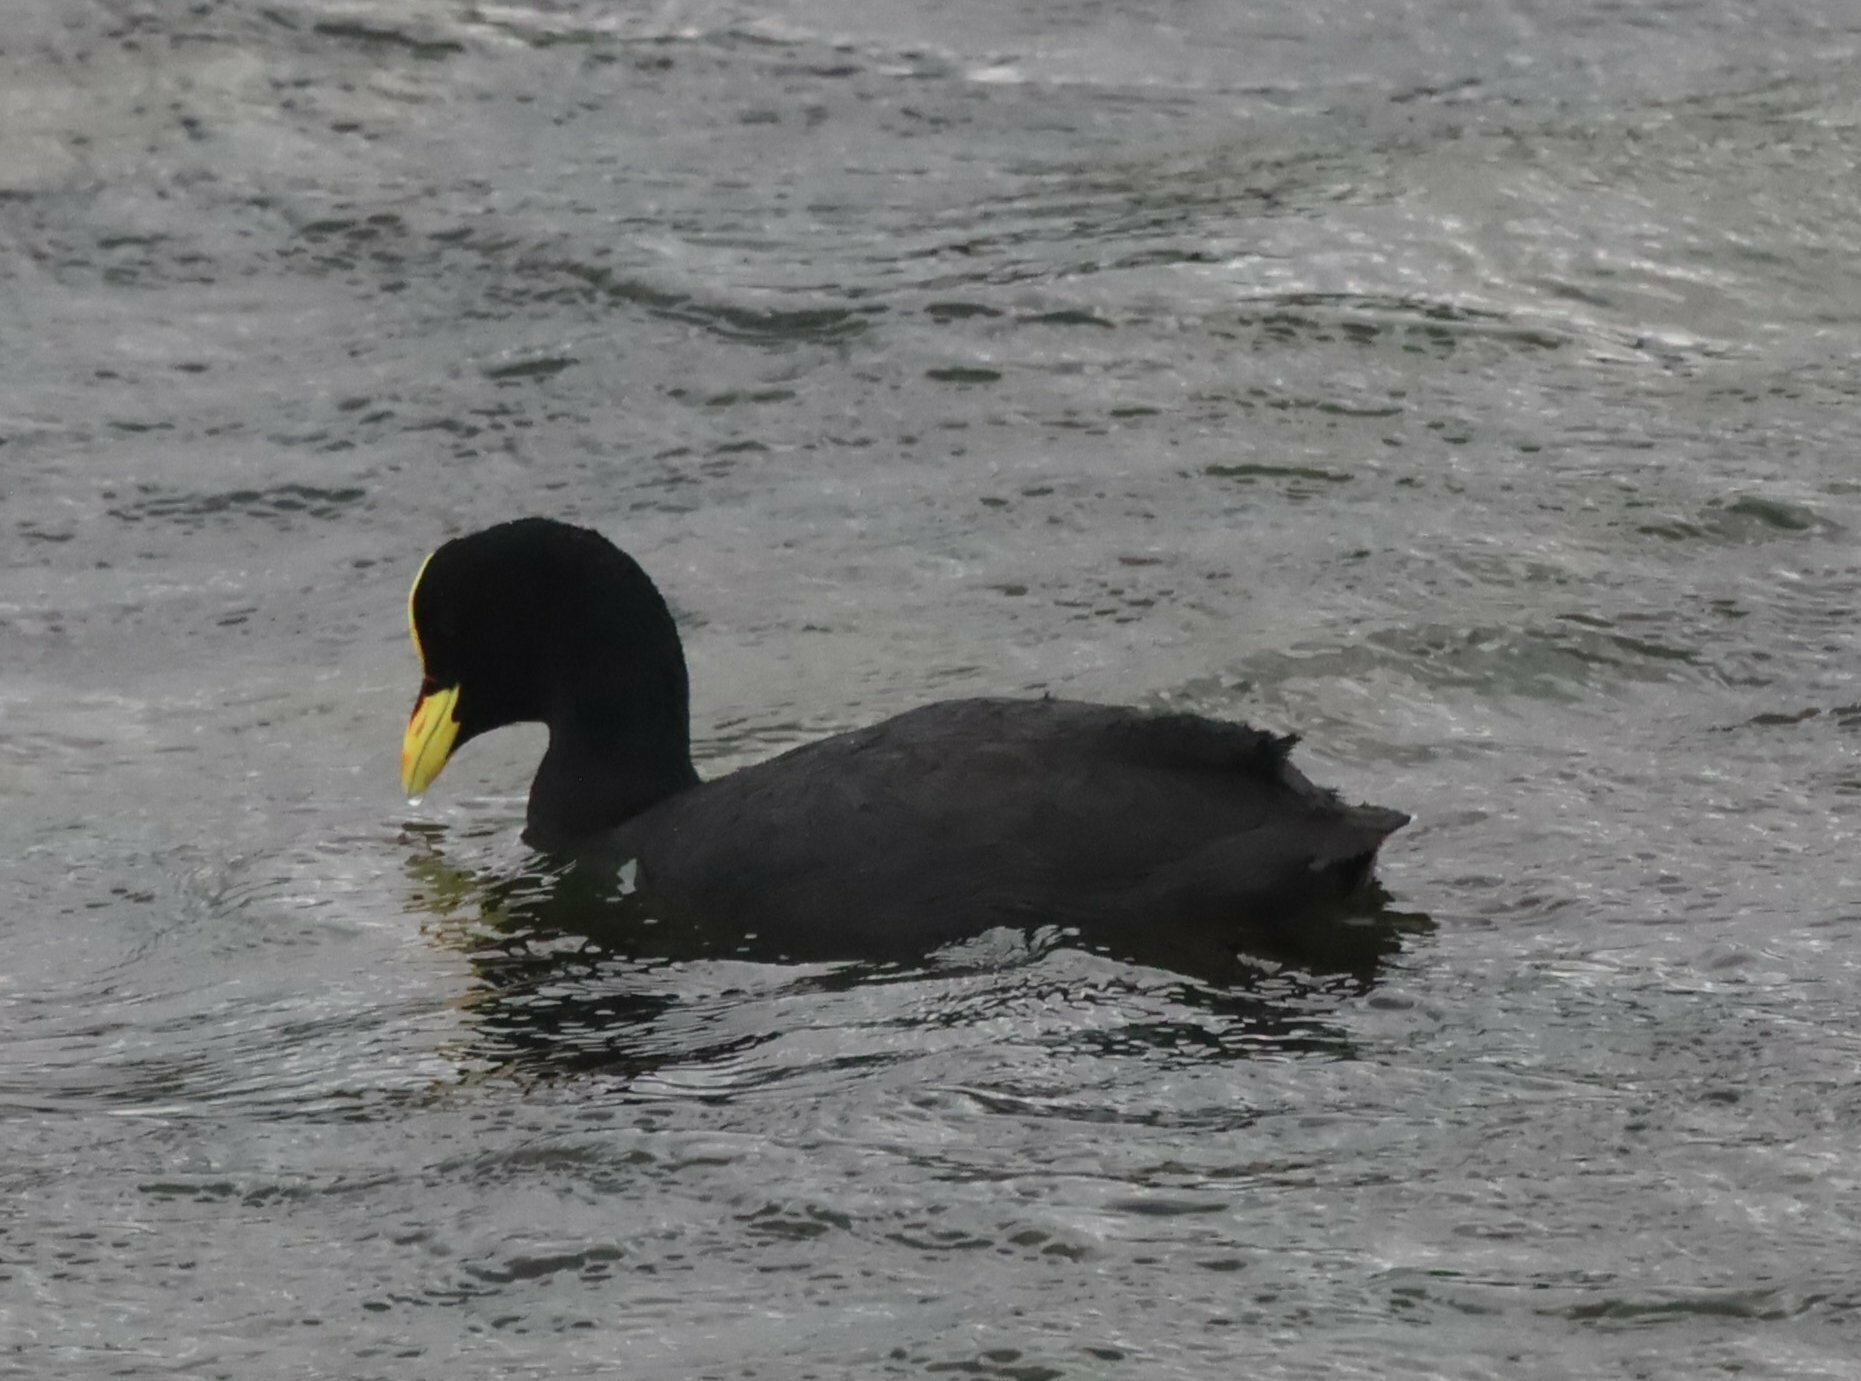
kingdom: Animalia
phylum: Chordata
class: Aves
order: Gruiformes
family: Rallidae
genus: Fulica
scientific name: Fulica armillata
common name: Red-gartered coot
